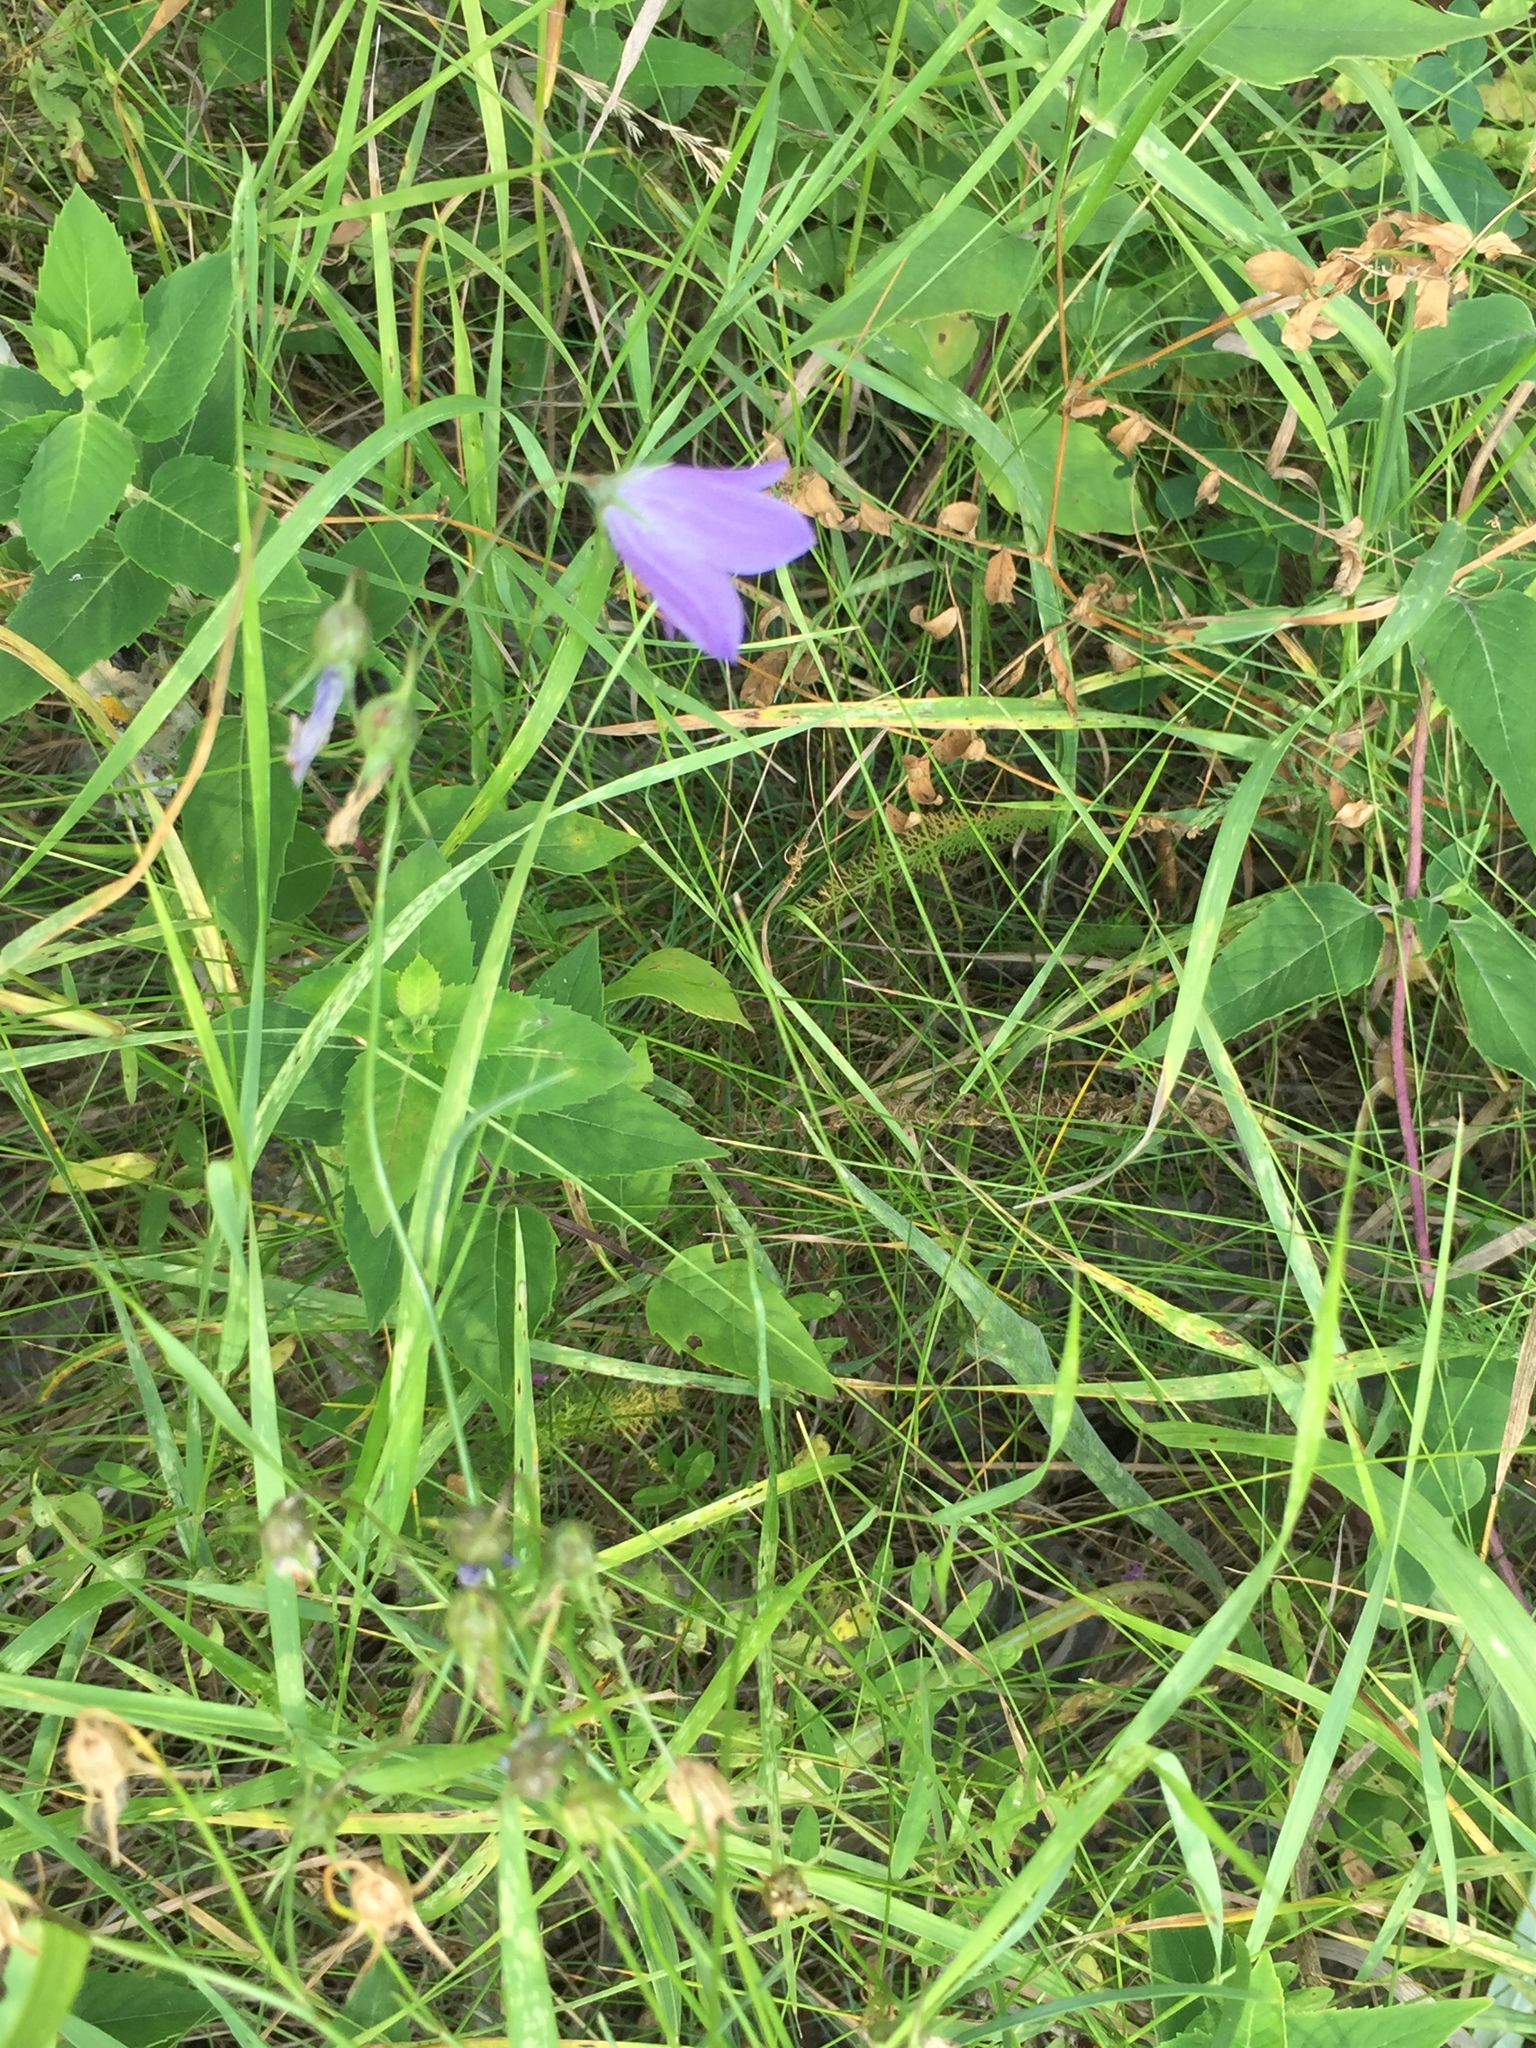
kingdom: Plantae
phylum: Tracheophyta
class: Magnoliopsida
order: Asterales
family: Campanulaceae
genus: Campanula
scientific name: Campanula petiolata
